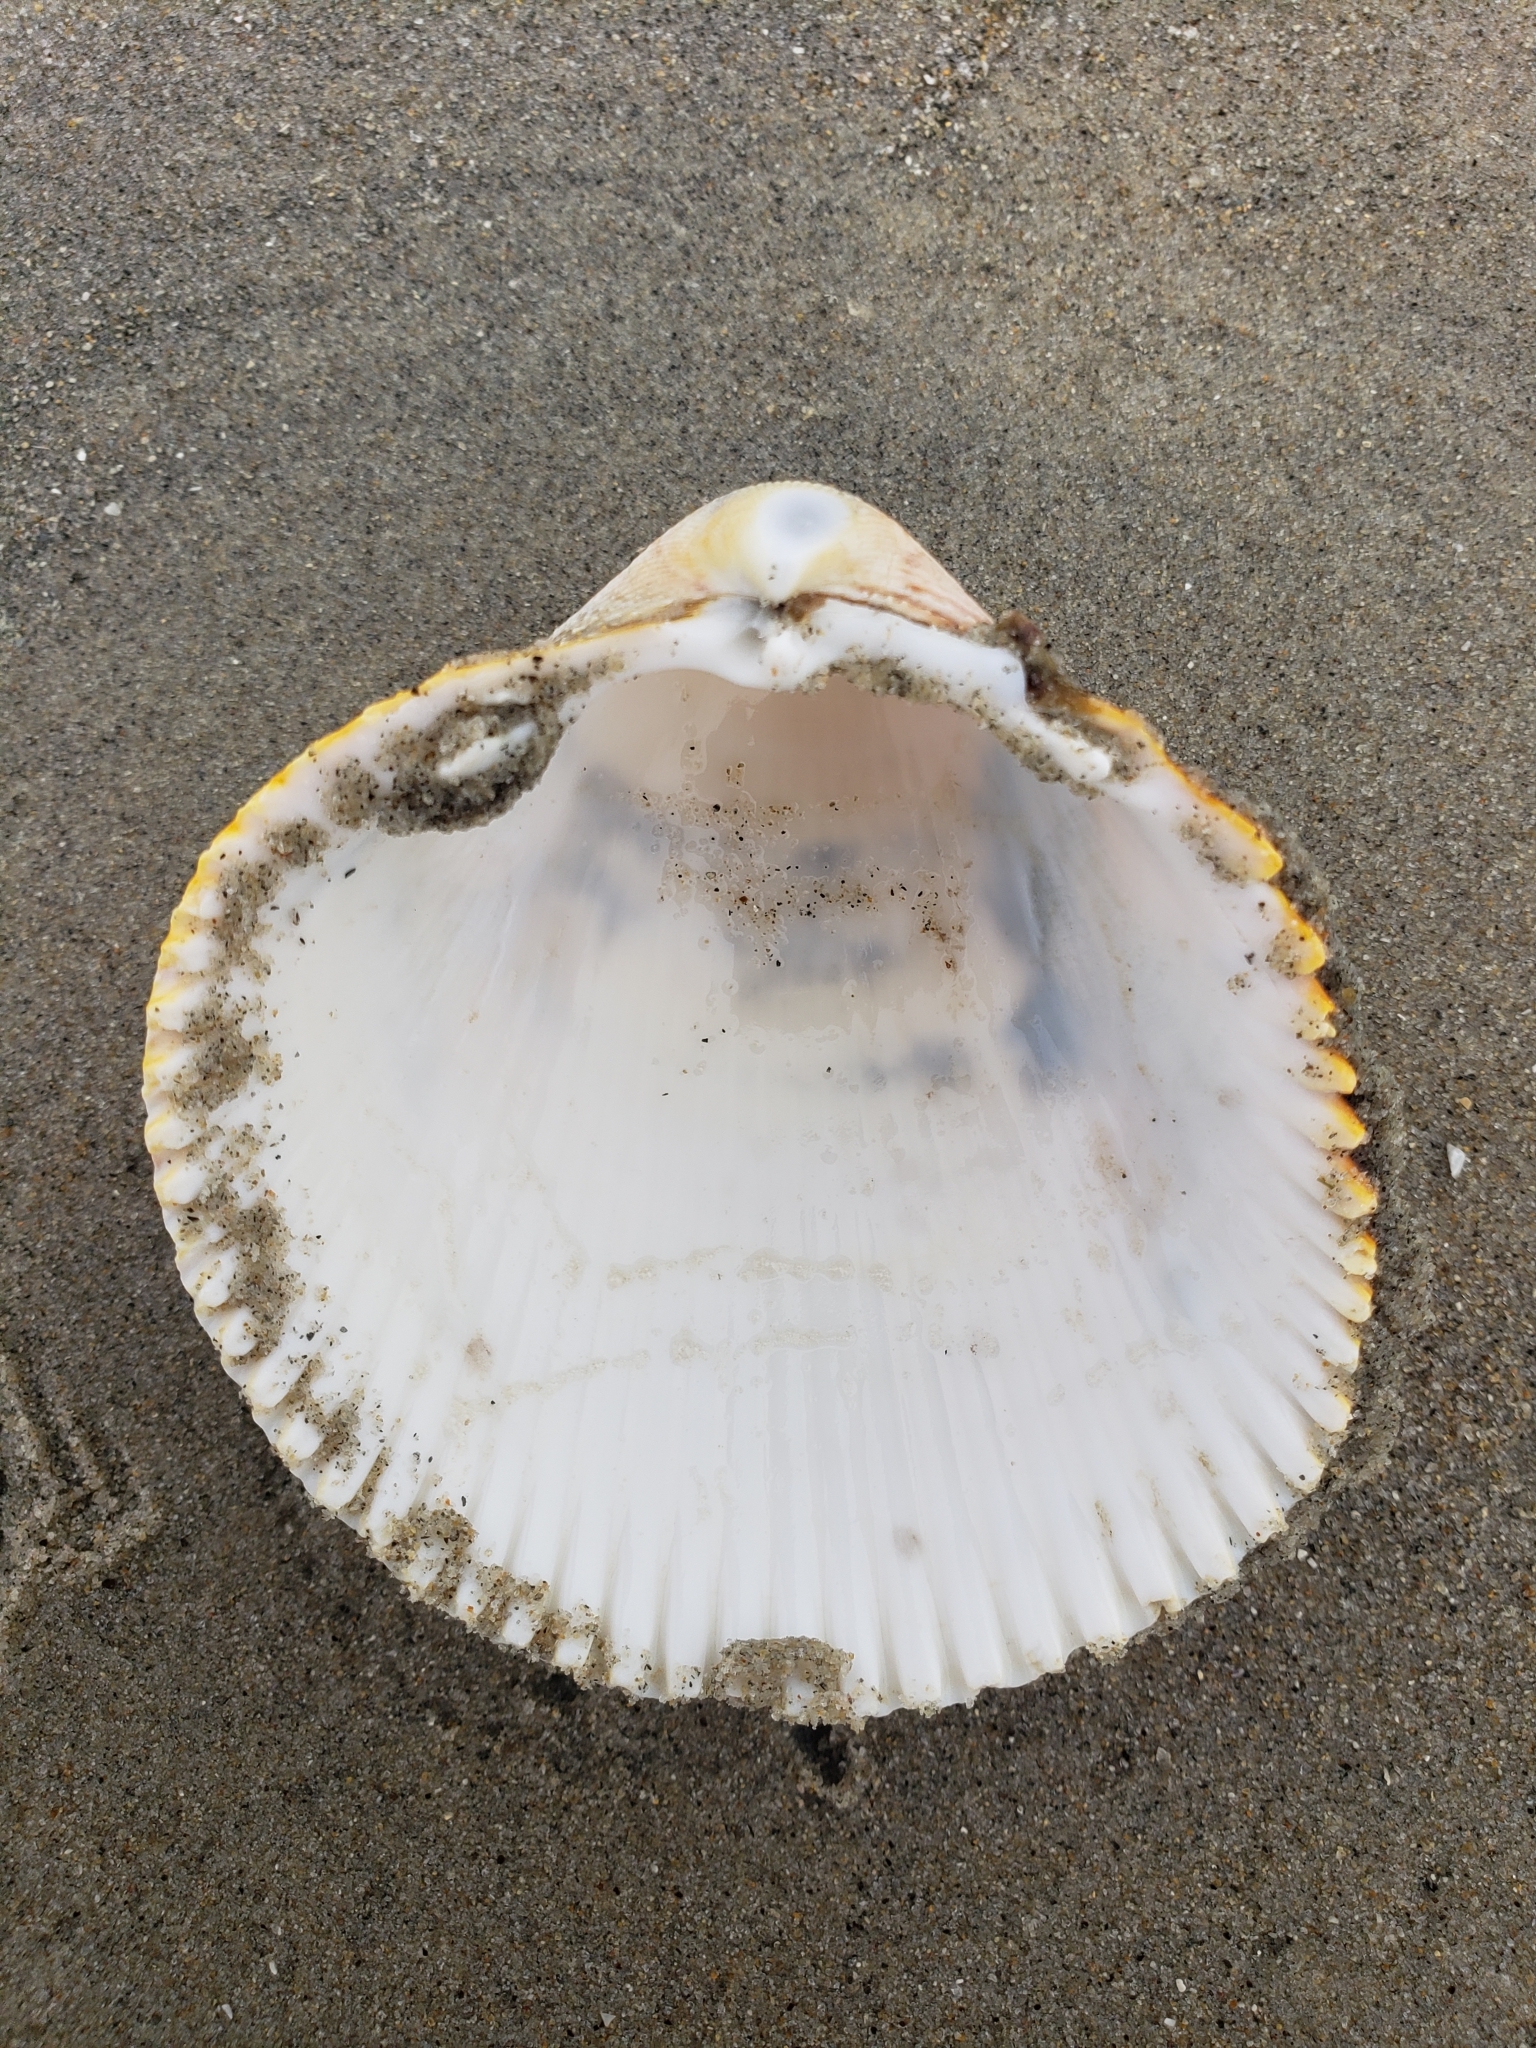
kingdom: Animalia
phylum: Mollusca
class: Bivalvia
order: Cardiida
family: Cardiidae
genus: Dallocardia
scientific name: Dallocardia quadragenaria
